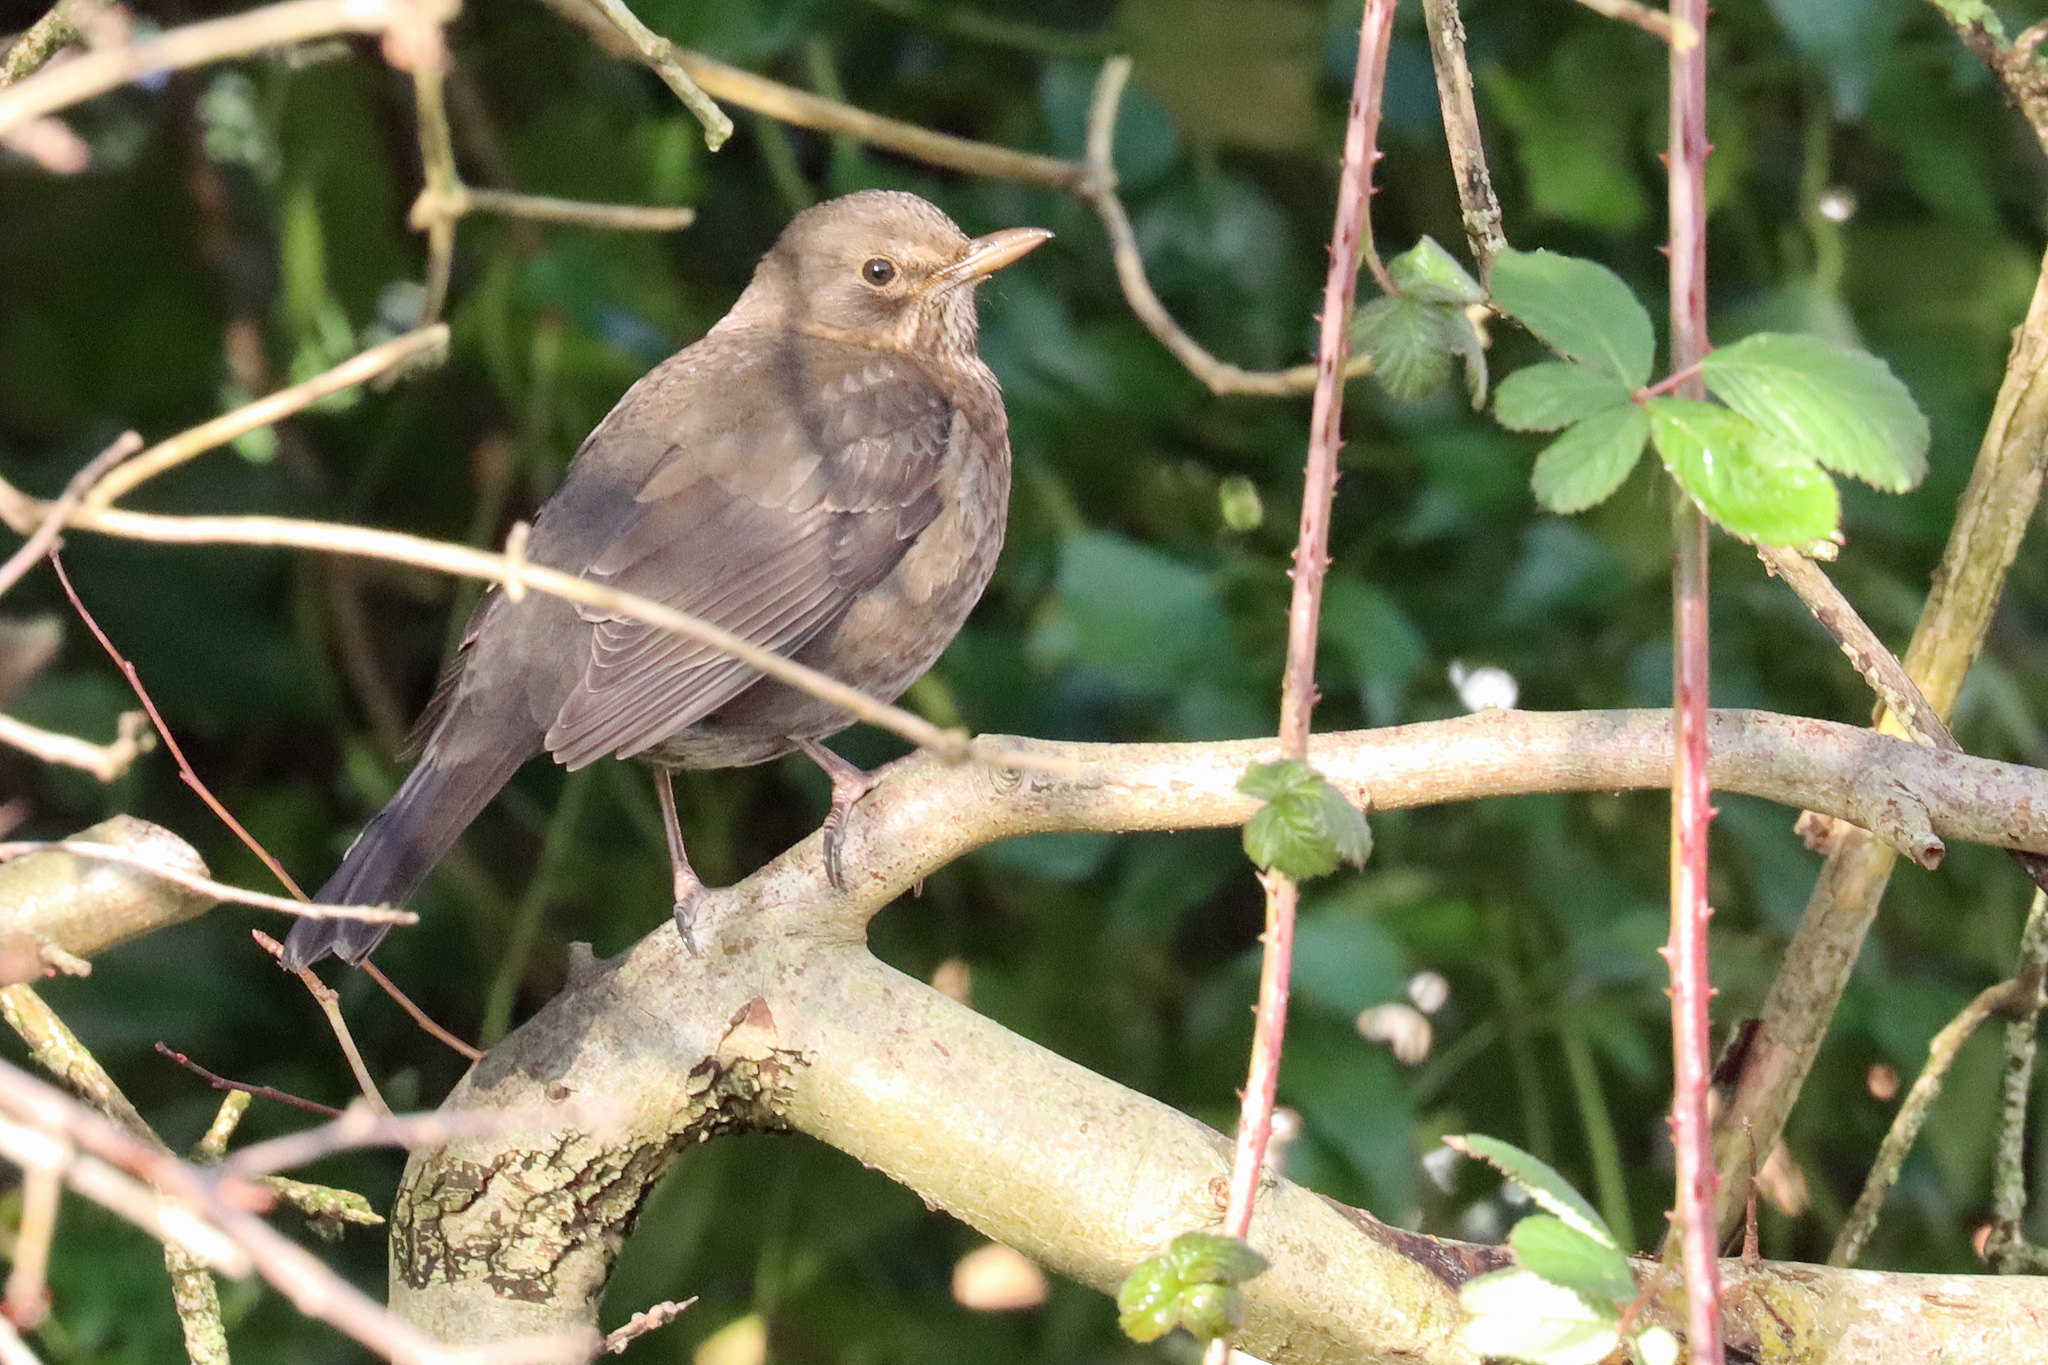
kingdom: Animalia
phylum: Chordata
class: Aves
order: Passeriformes
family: Turdidae
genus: Turdus
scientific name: Turdus merula
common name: Common blackbird
